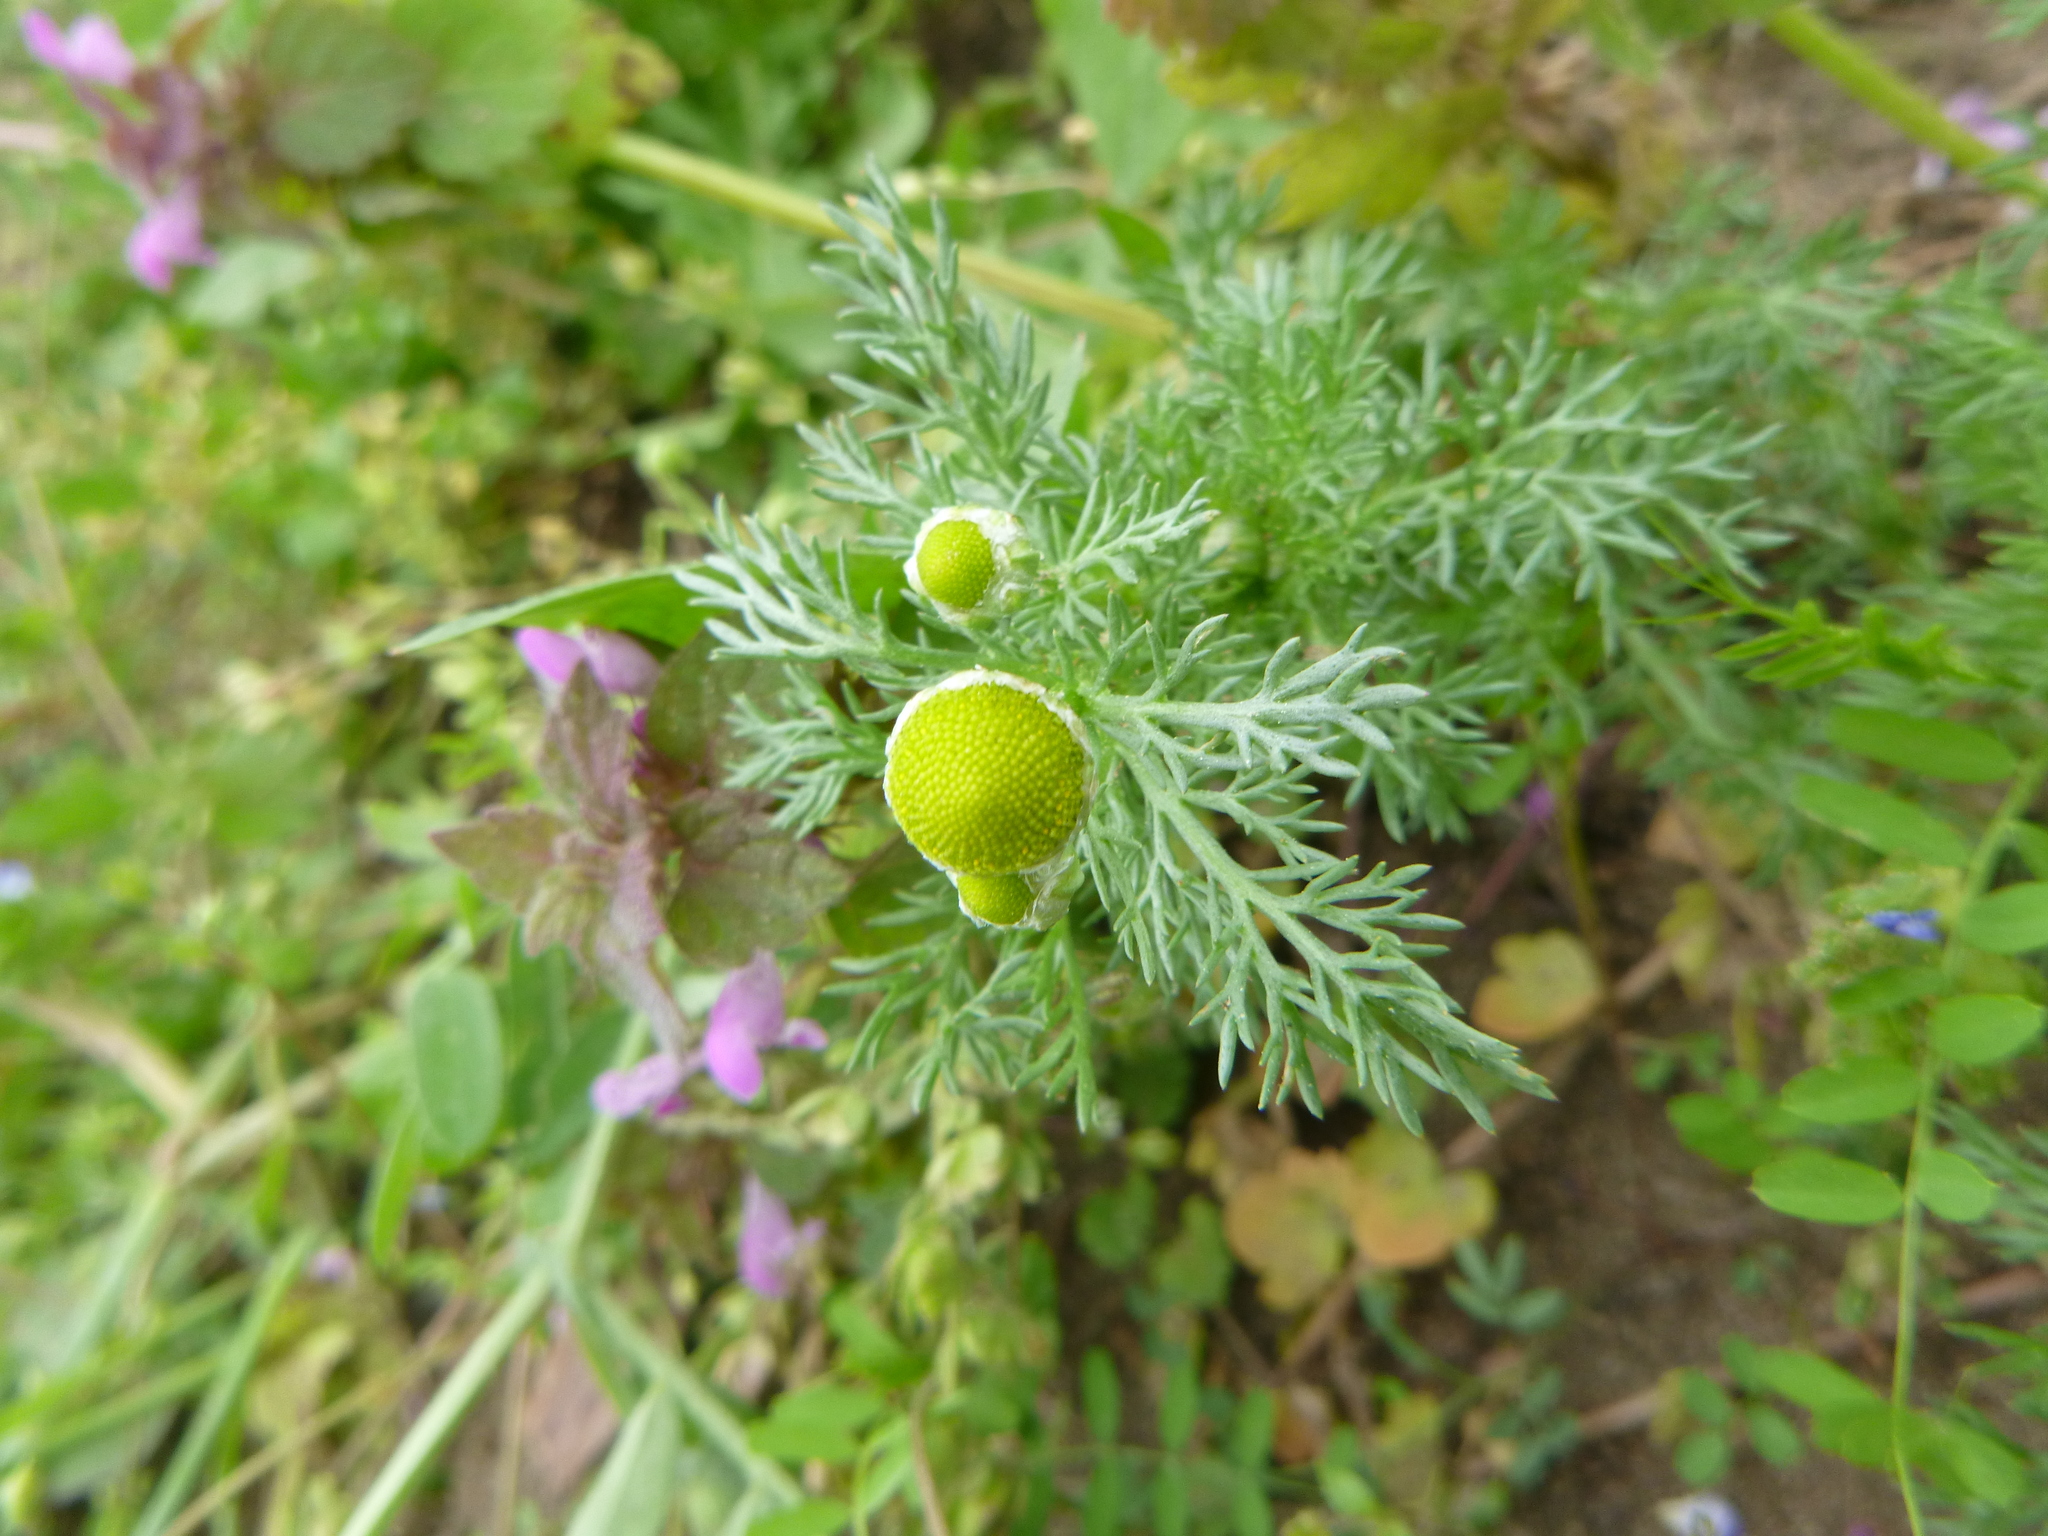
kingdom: Plantae
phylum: Tracheophyta
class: Magnoliopsida
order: Asterales
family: Asteraceae
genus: Matricaria
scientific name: Matricaria discoidea
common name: Disc mayweed
